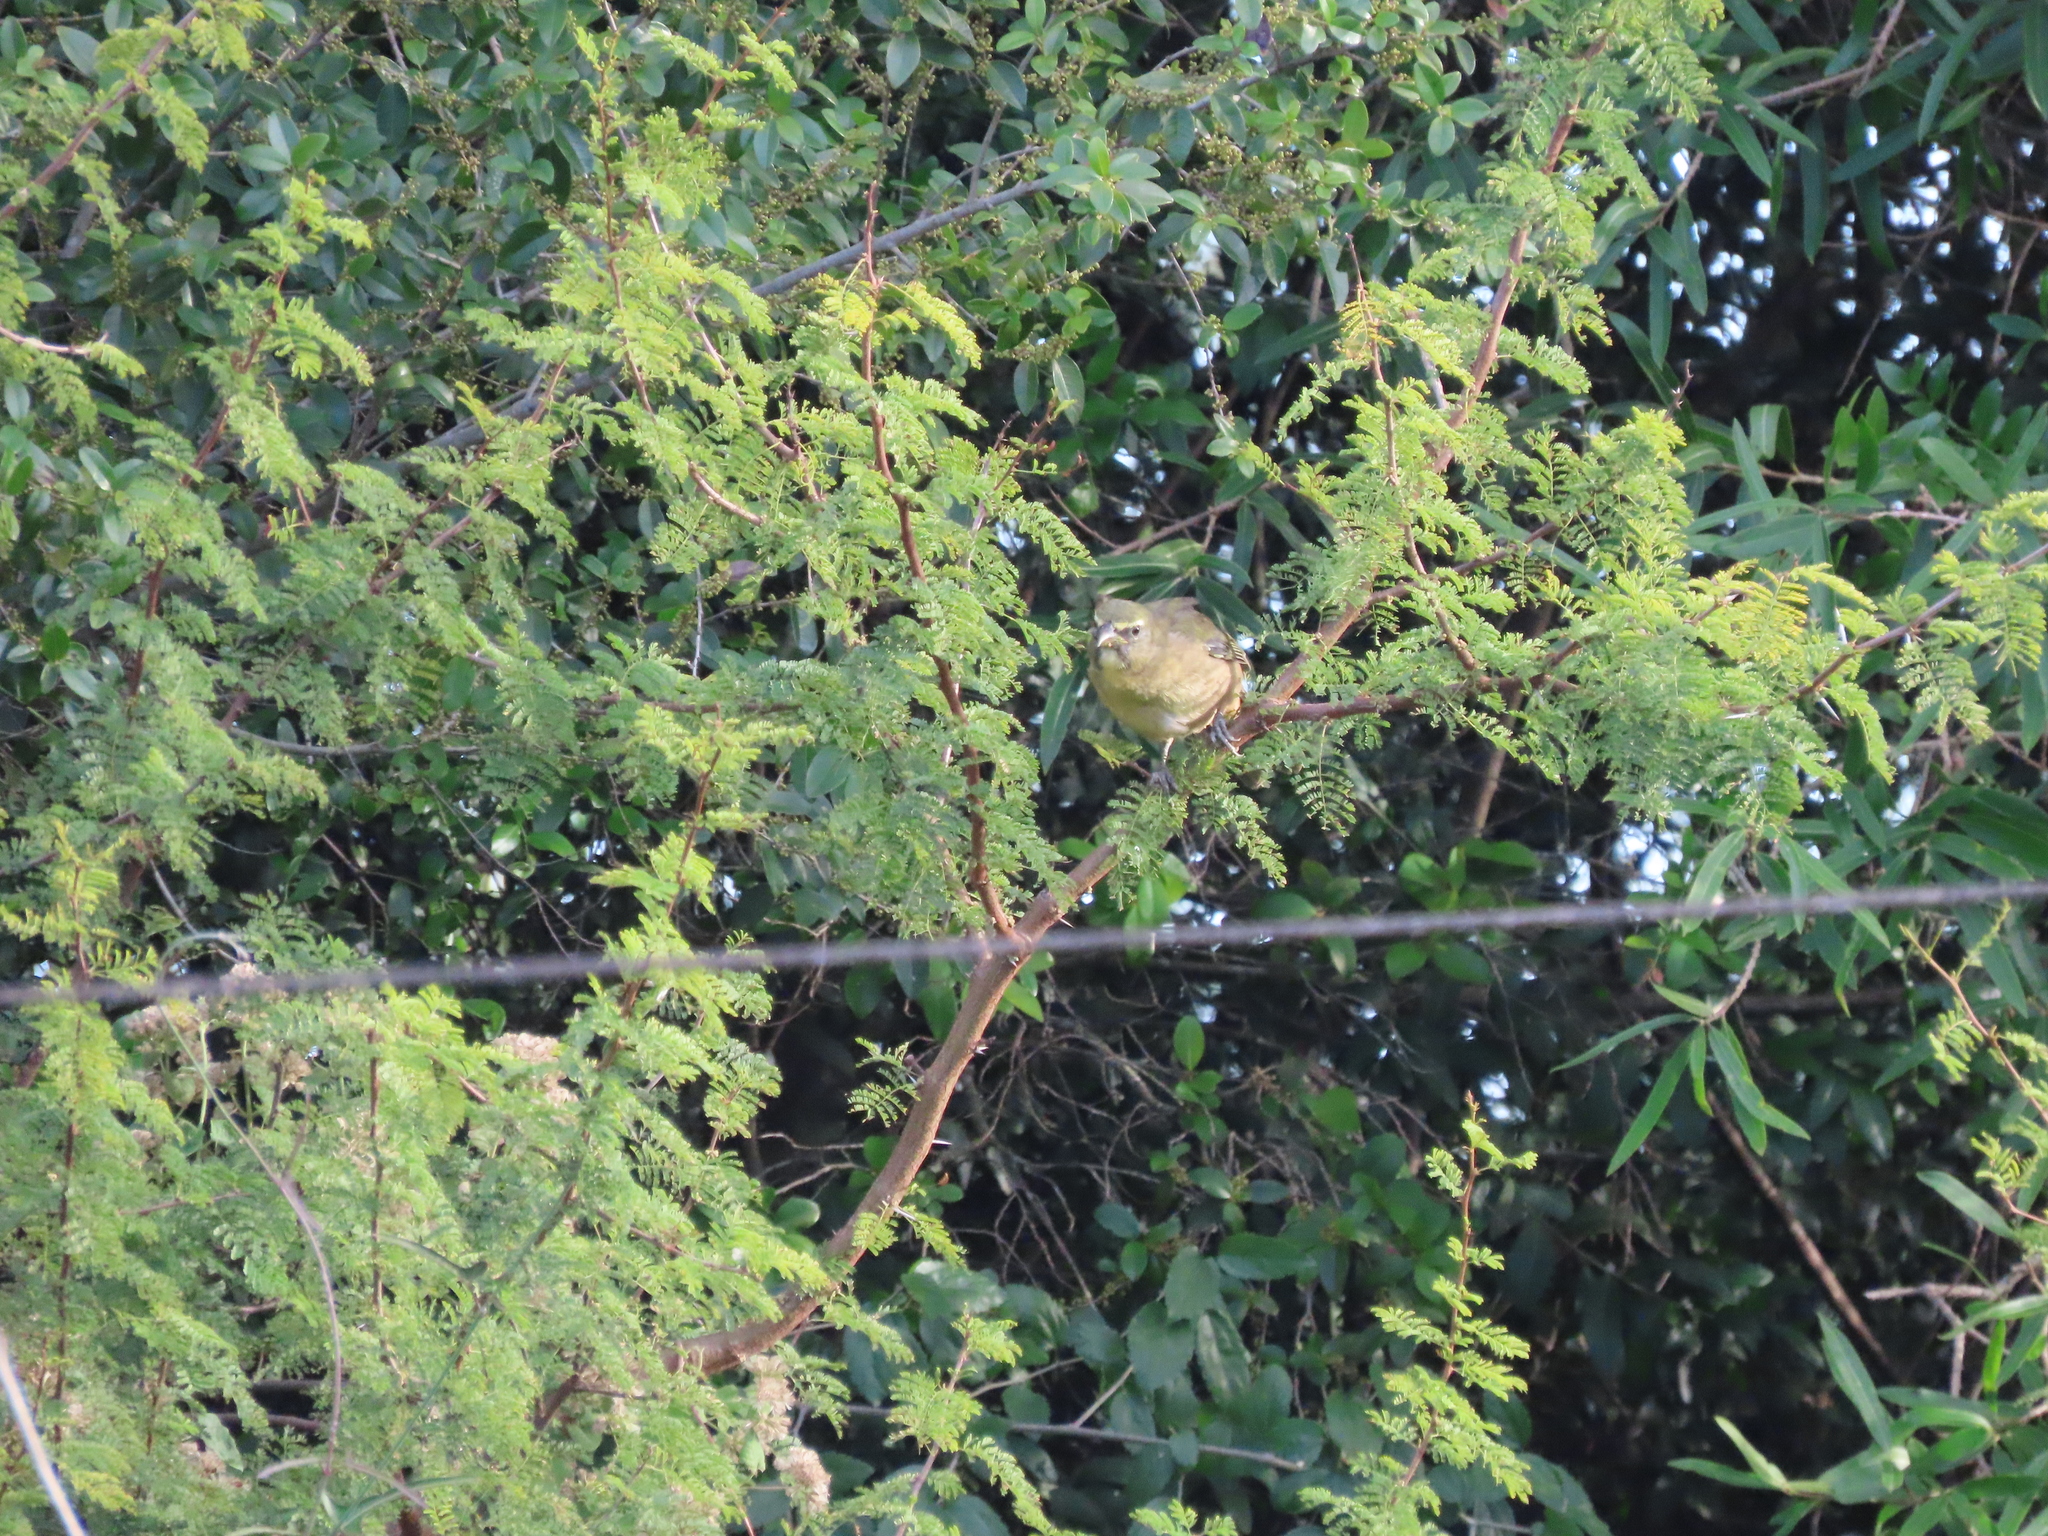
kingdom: Animalia
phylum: Chordata
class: Aves
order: Passeriformes
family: Thraupidae
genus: Saltator
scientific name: Saltator coerulescens
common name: Grayish saltator
